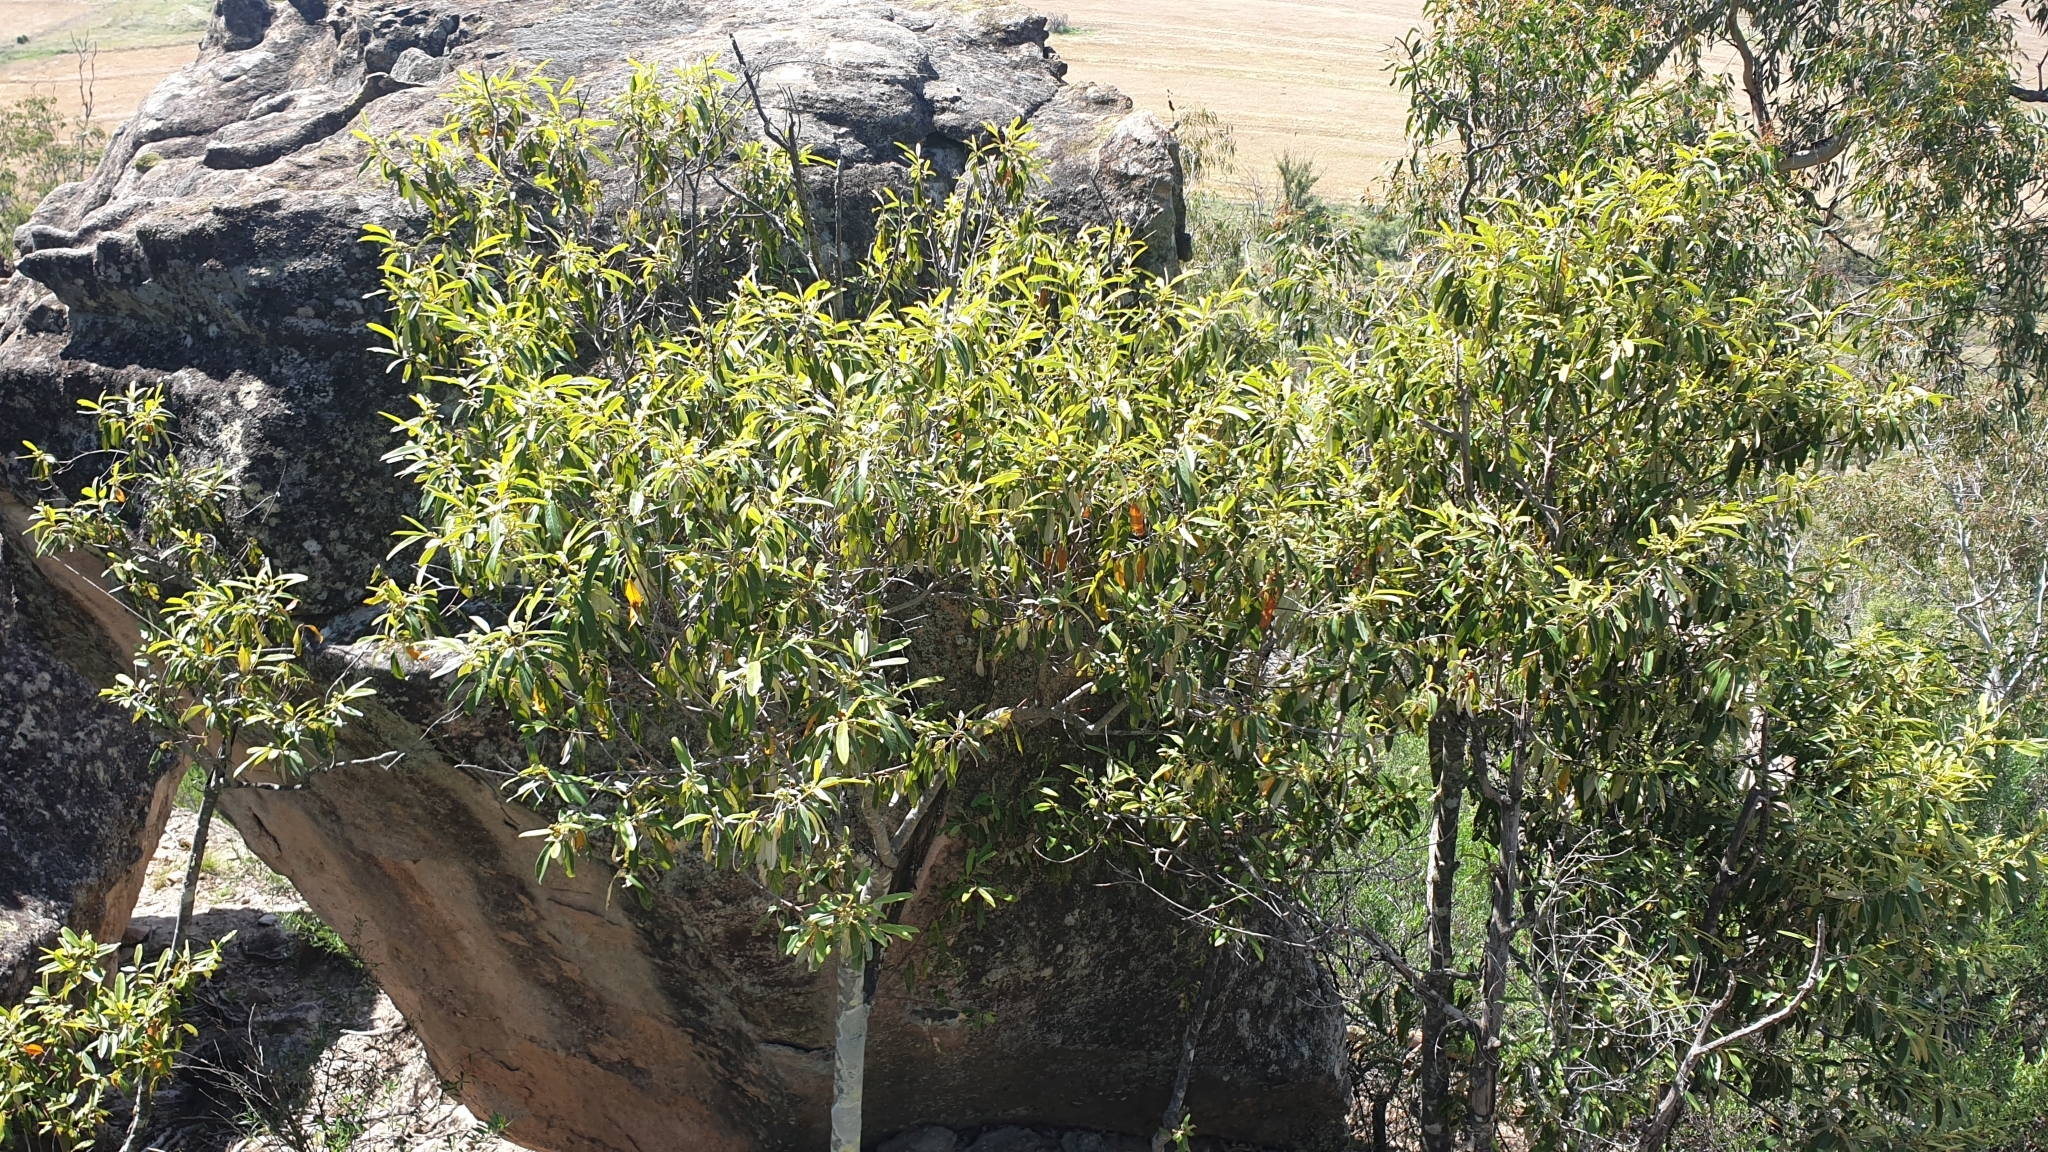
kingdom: Plantae
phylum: Tracheophyta
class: Magnoliopsida
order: Rosales
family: Rhamnaceae
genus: Alphitonia
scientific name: Alphitonia excelsa
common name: Red ash
